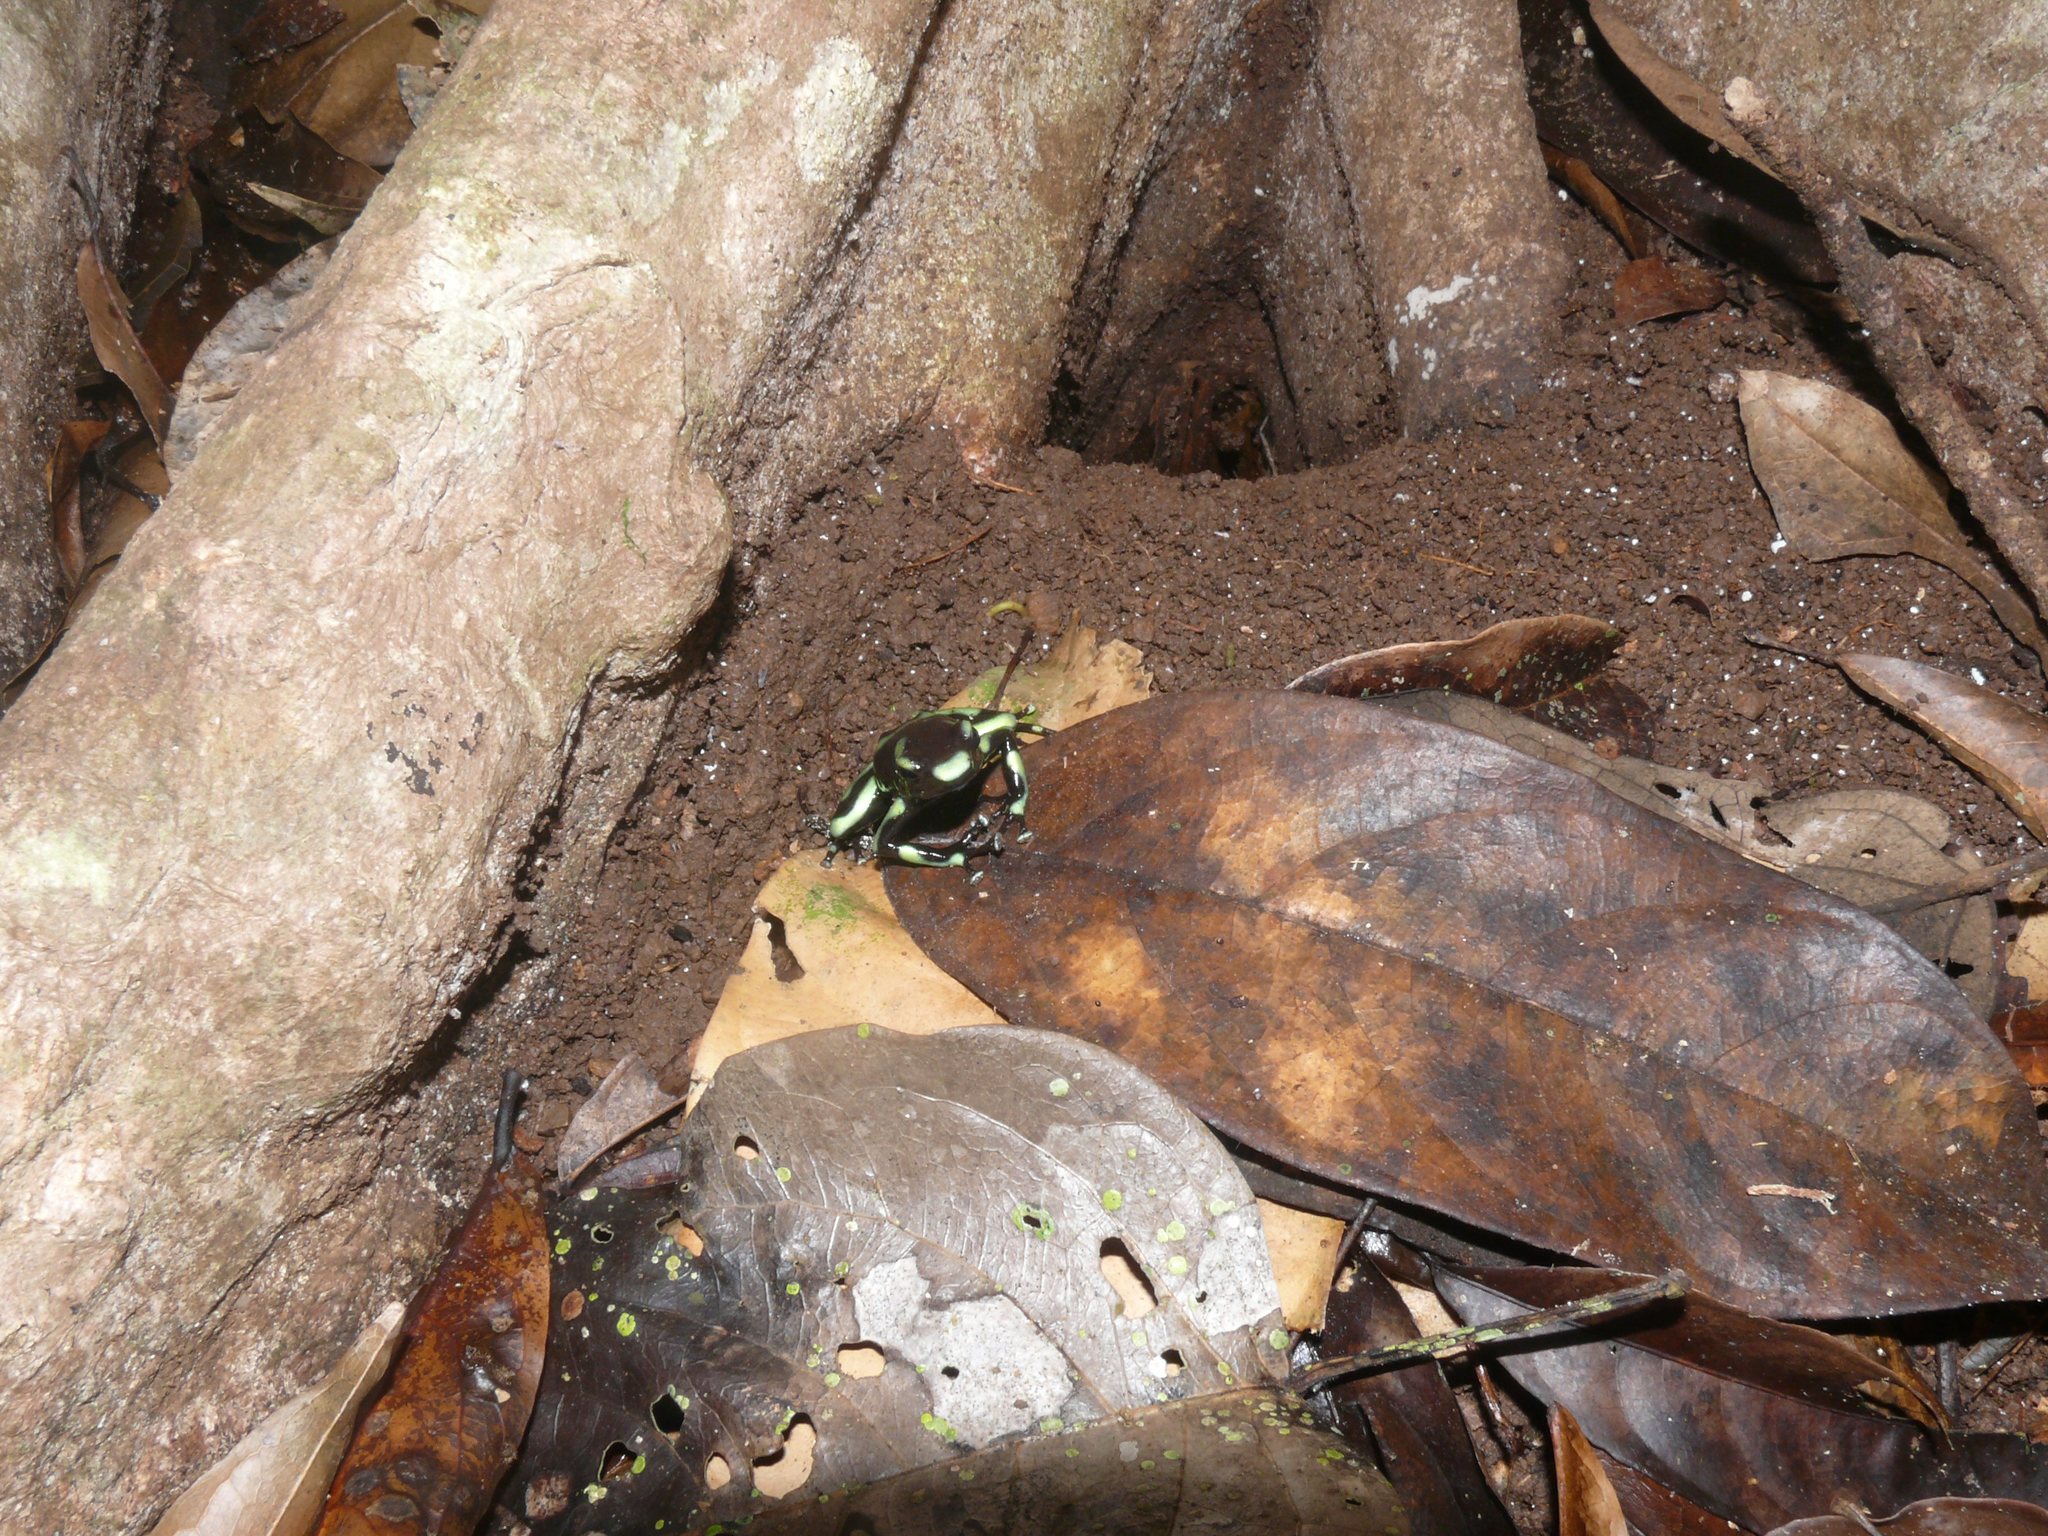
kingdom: Animalia
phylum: Chordata
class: Amphibia
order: Anura
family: Dendrobatidae
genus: Dendrobates
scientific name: Dendrobates auratus
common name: Green and black poison dart frog
